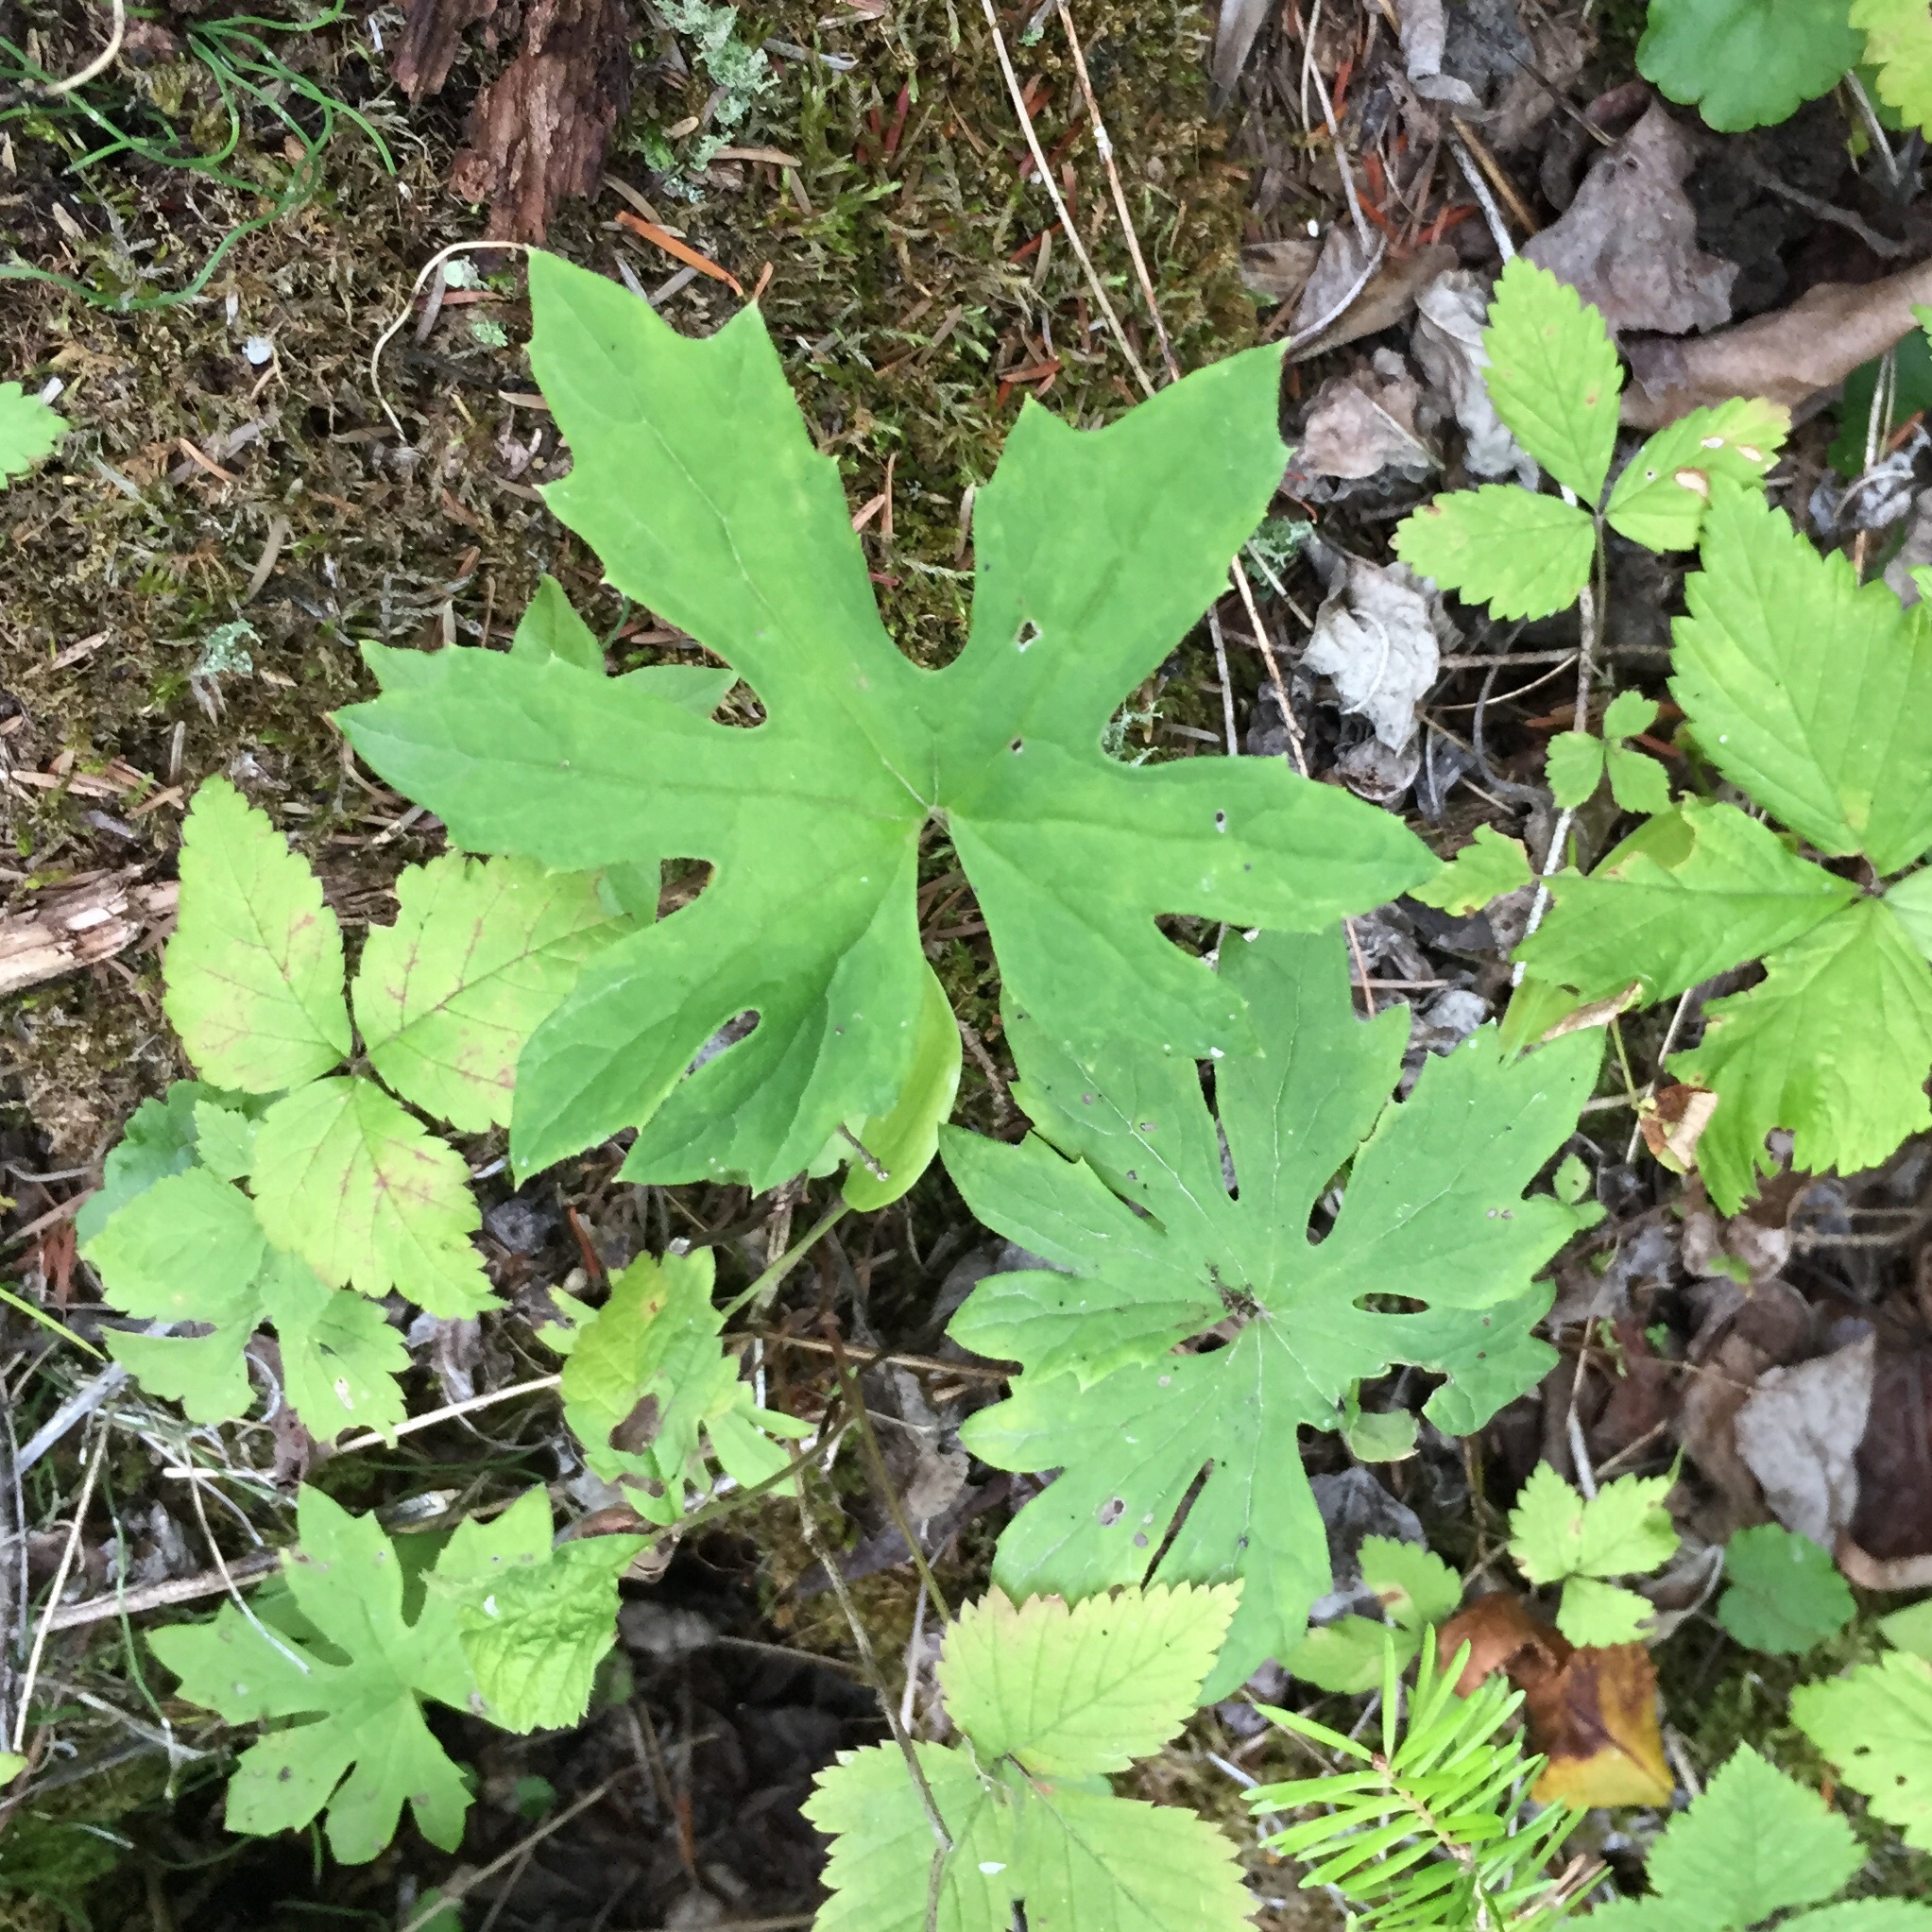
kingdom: Plantae
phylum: Tracheophyta
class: Magnoliopsida
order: Asterales
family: Asteraceae
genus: Petasites
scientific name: Petasites frigidus
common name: Arctic butterbur
